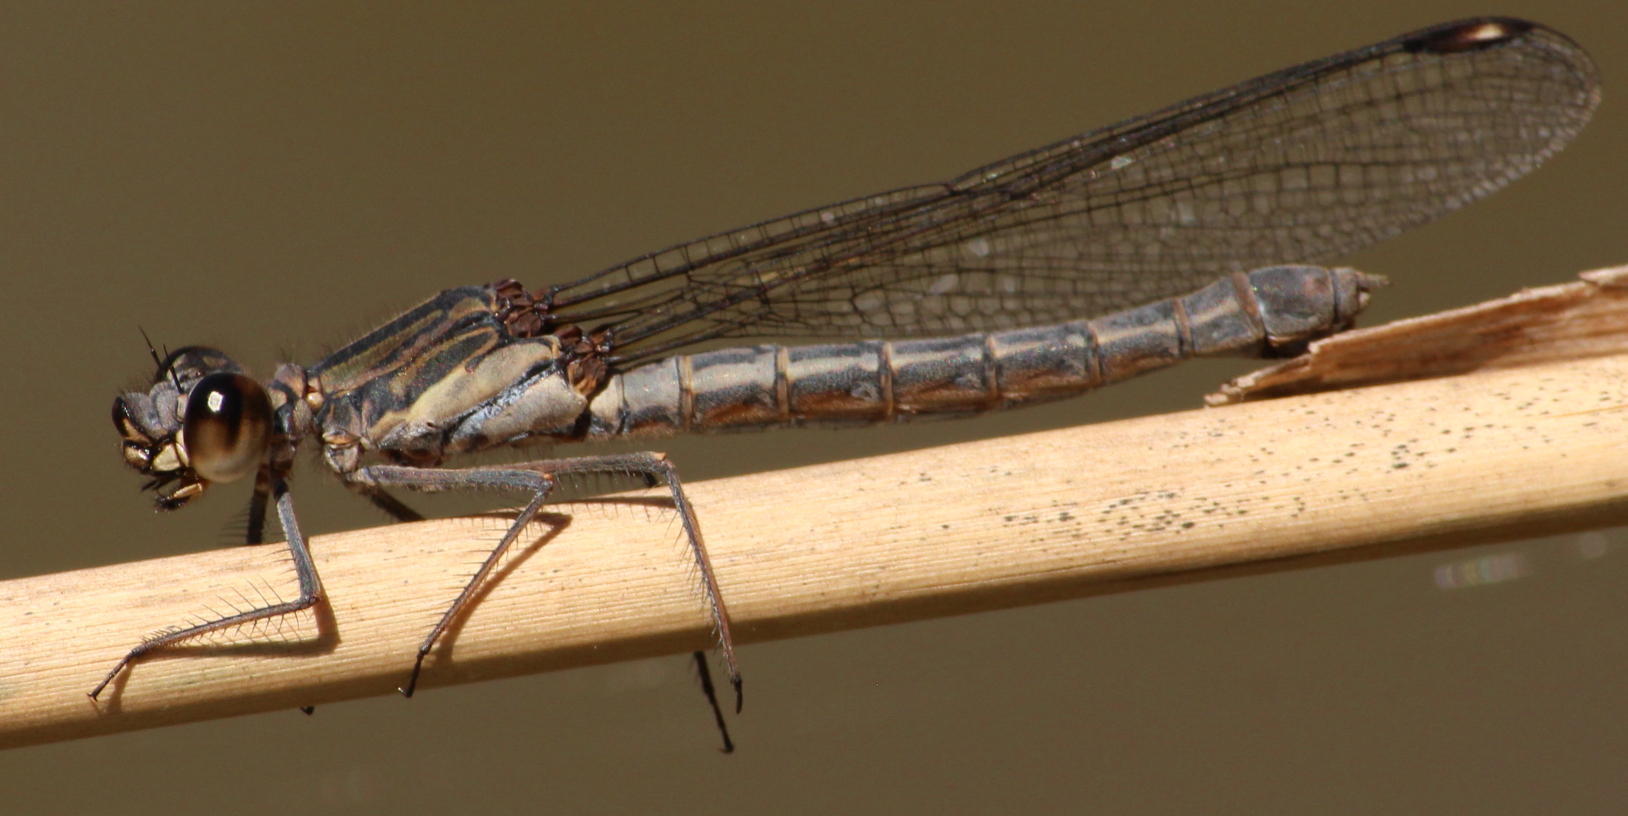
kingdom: Animalia
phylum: Arthropoda
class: Insecta
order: Odonata
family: Chlorocyphidae
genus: Platycypha
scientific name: Platycypha fitzsimonsi
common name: Boulder jewel
